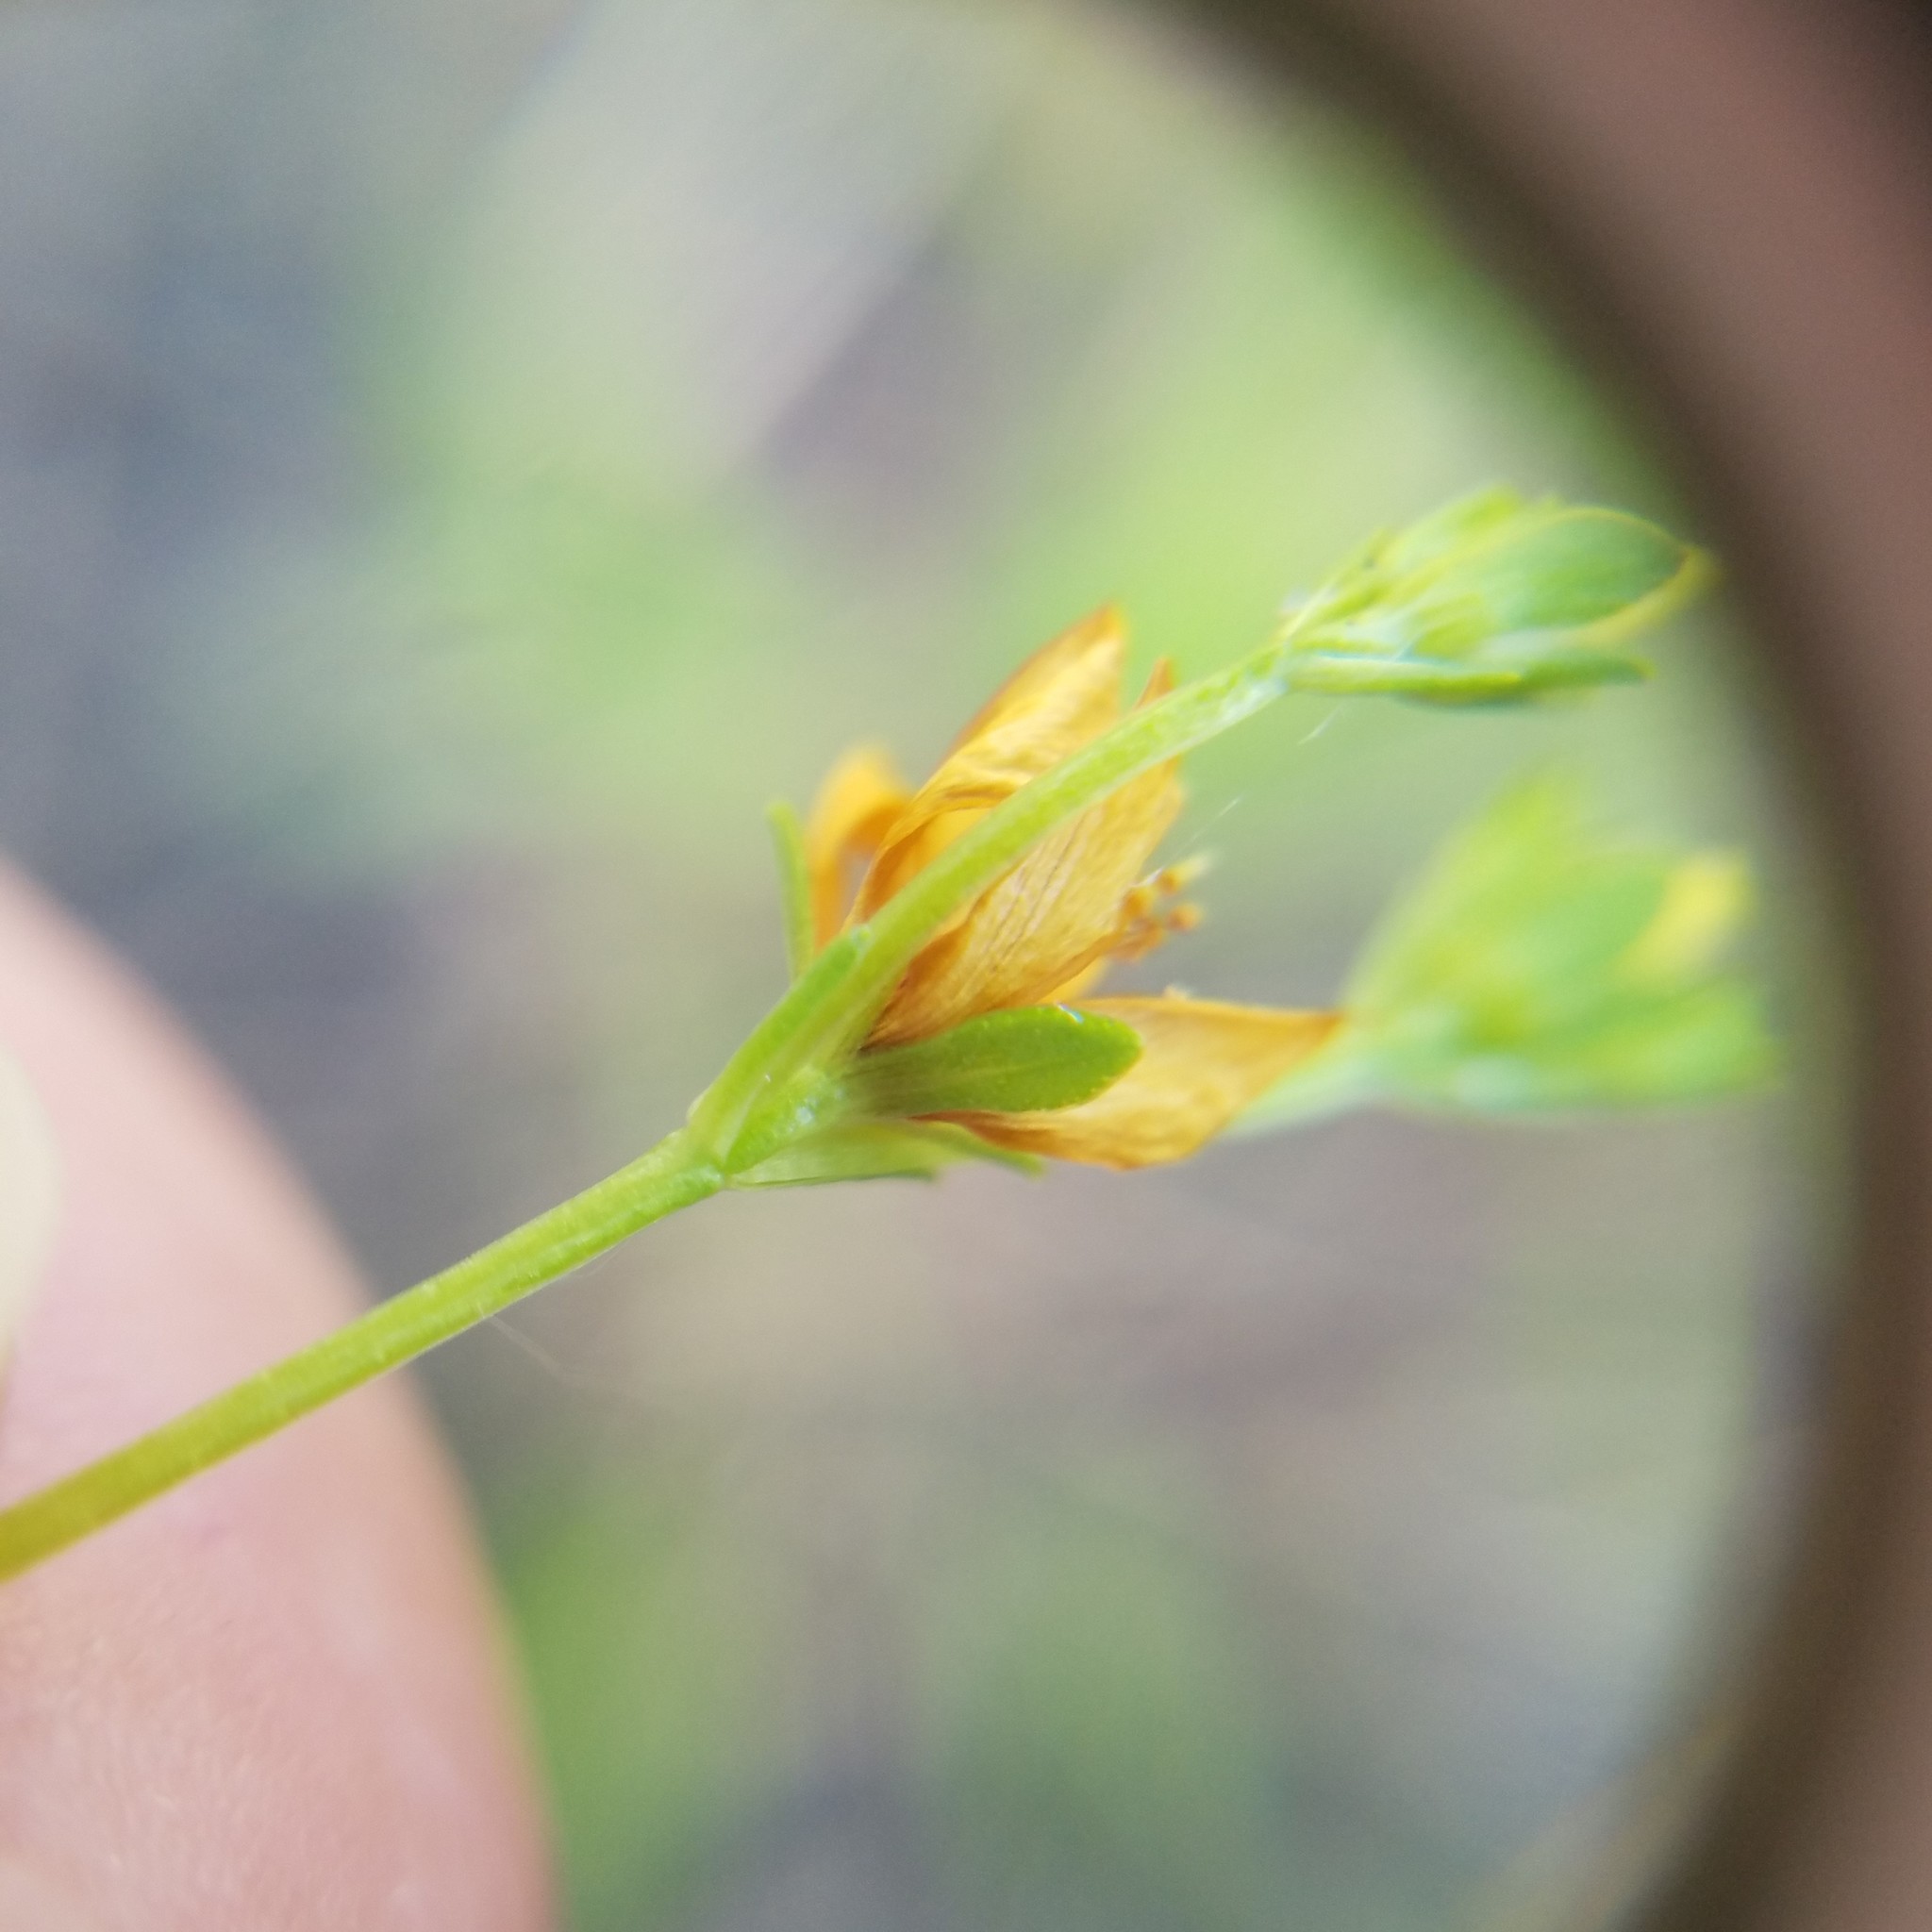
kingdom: Plantae
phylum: Tracheophyta
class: Magnoliopsida
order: Malpighiales
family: Hypericaceae
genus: Hypericum
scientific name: Hypericum cistifolium
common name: Round-pod st. john's-wort
